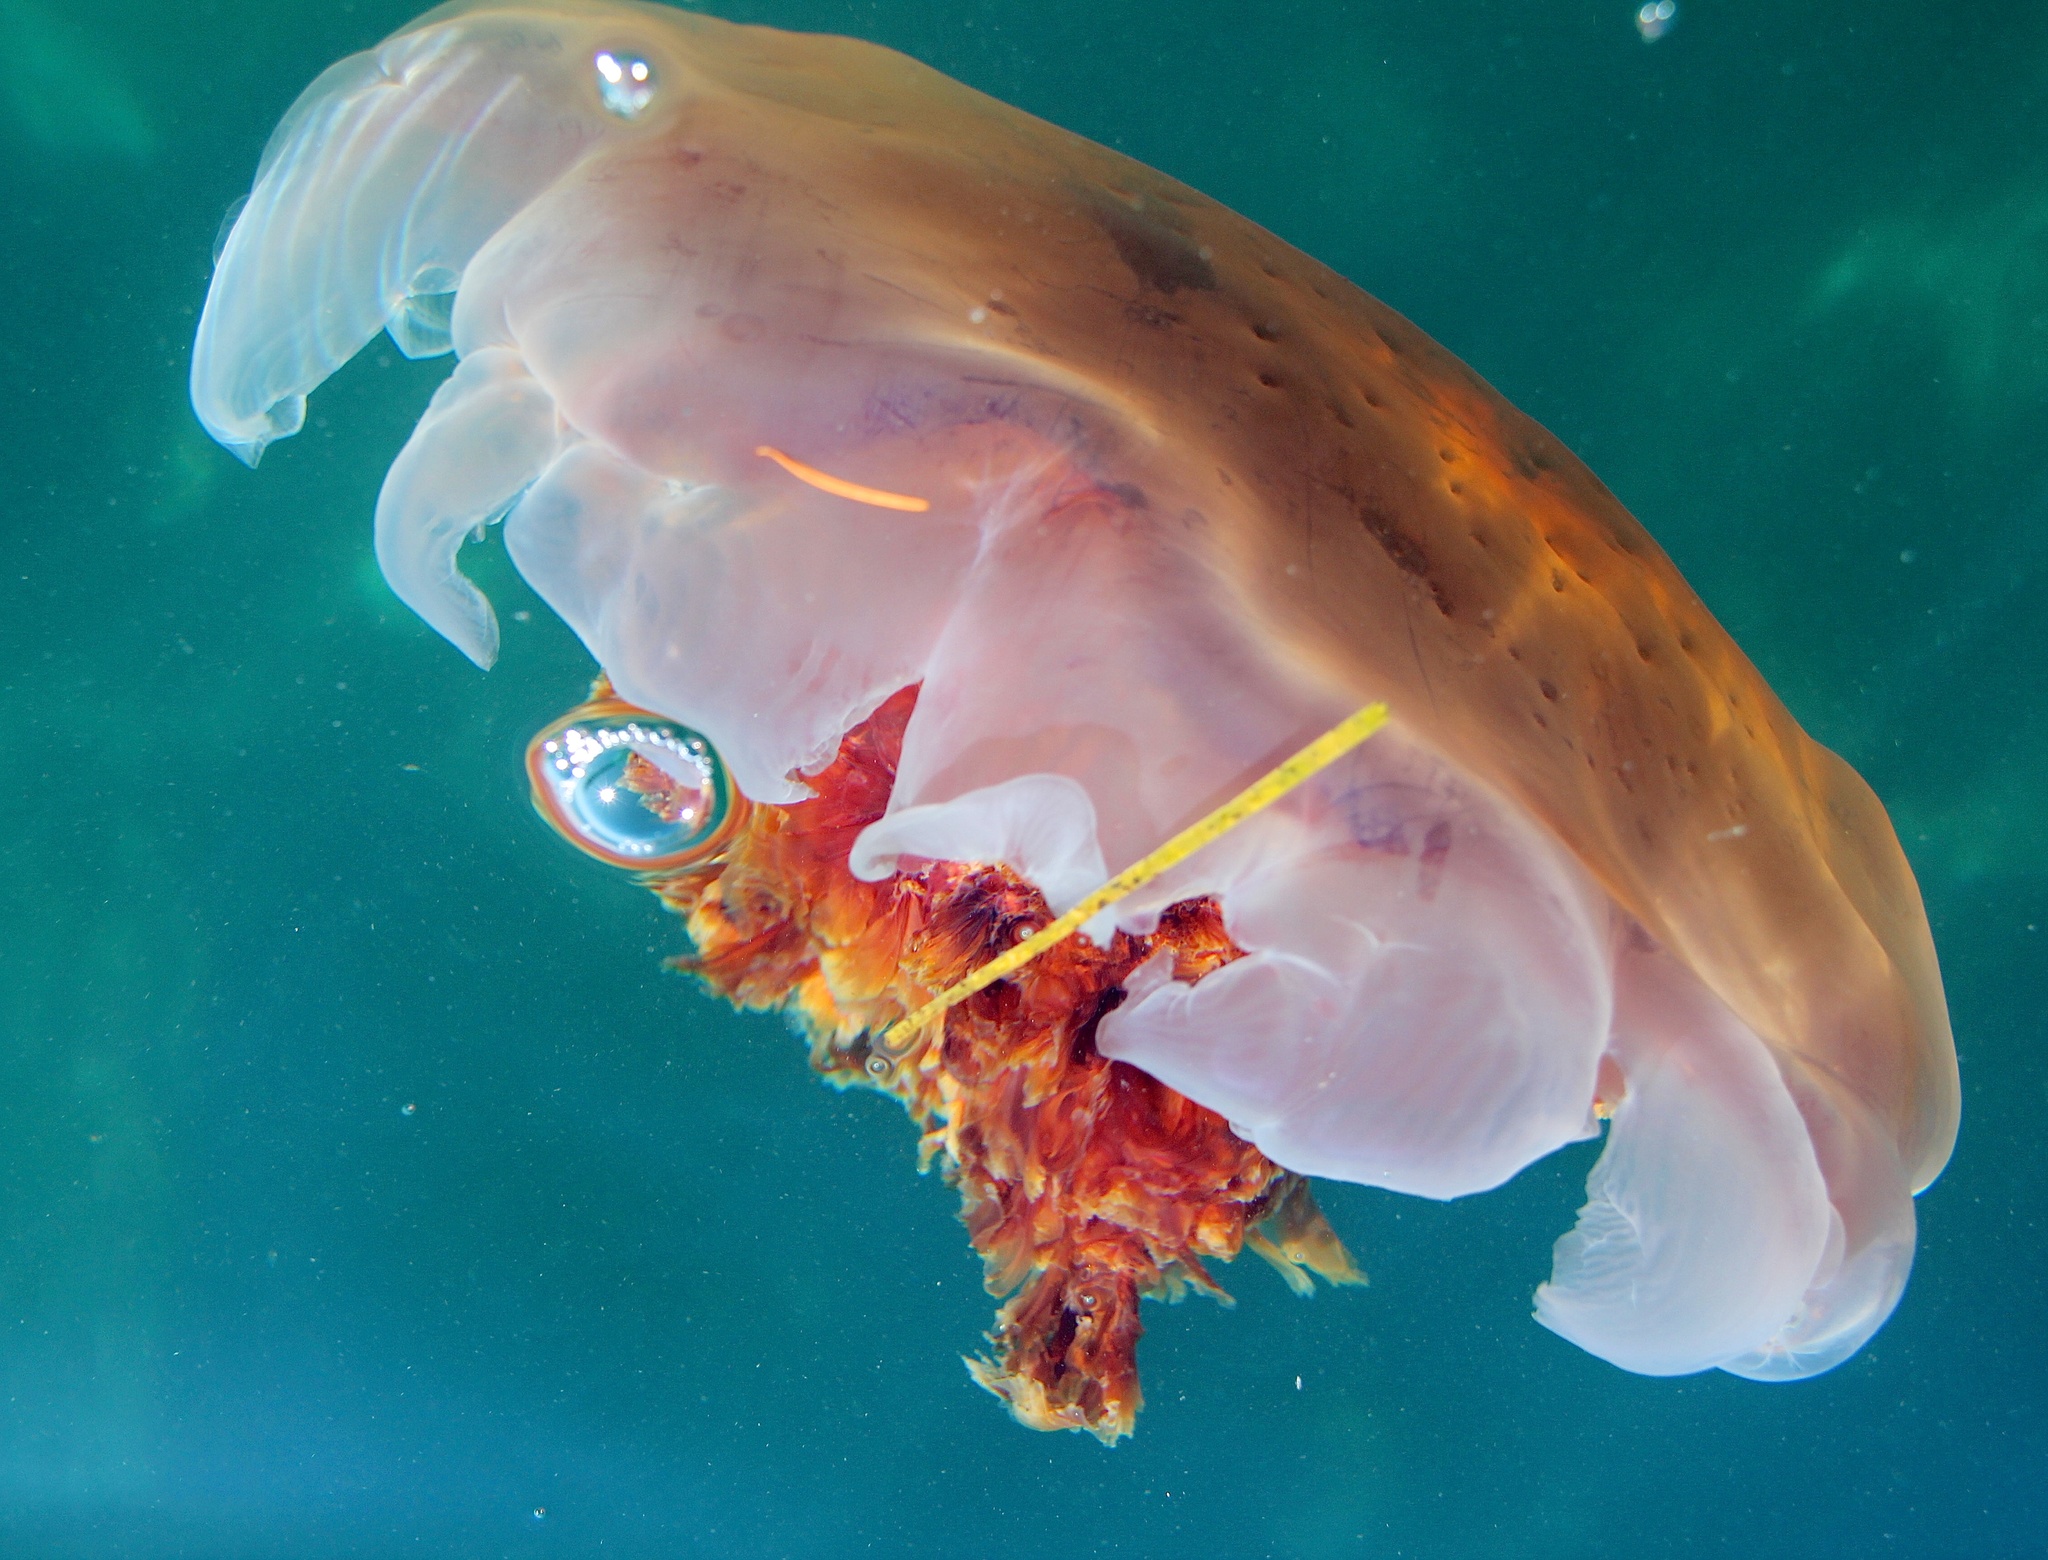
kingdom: Animalia
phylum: Cnidaria
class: Scyphozoa
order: Semaeostomeae
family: Cyaneidae
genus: Cyanea
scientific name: Cyanea ferruginea
